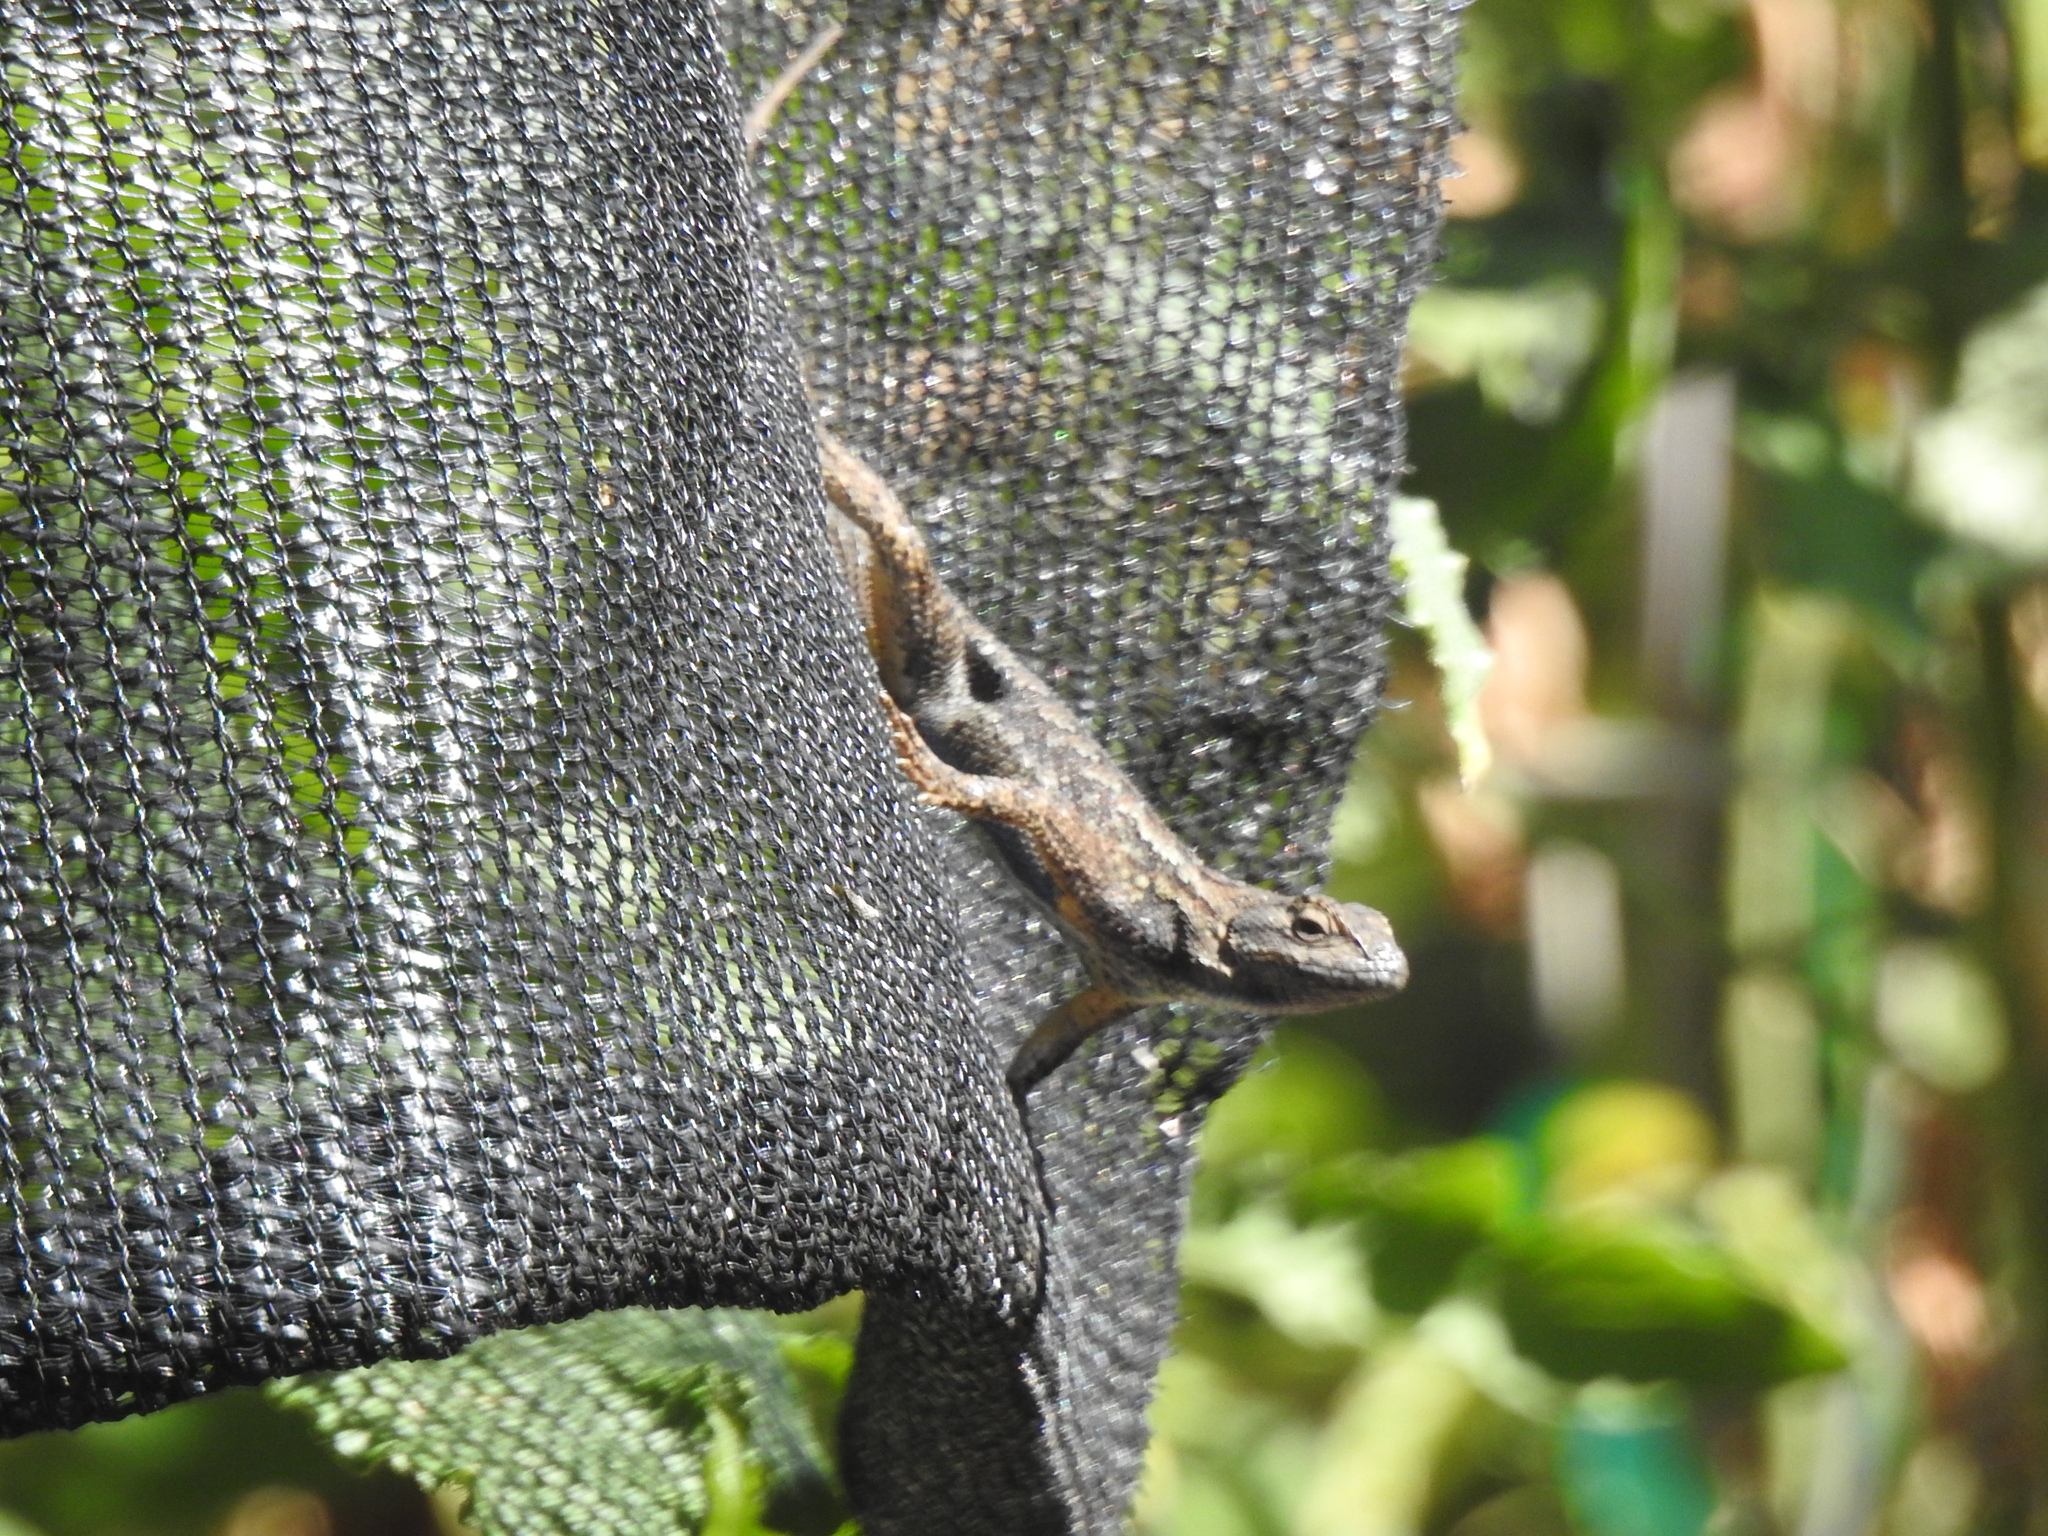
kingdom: Animalia
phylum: Chordata
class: Squamata
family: Phrynosomatidae
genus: Sceloporus
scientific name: Sceloporus occidentalis
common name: Western fence lizard
